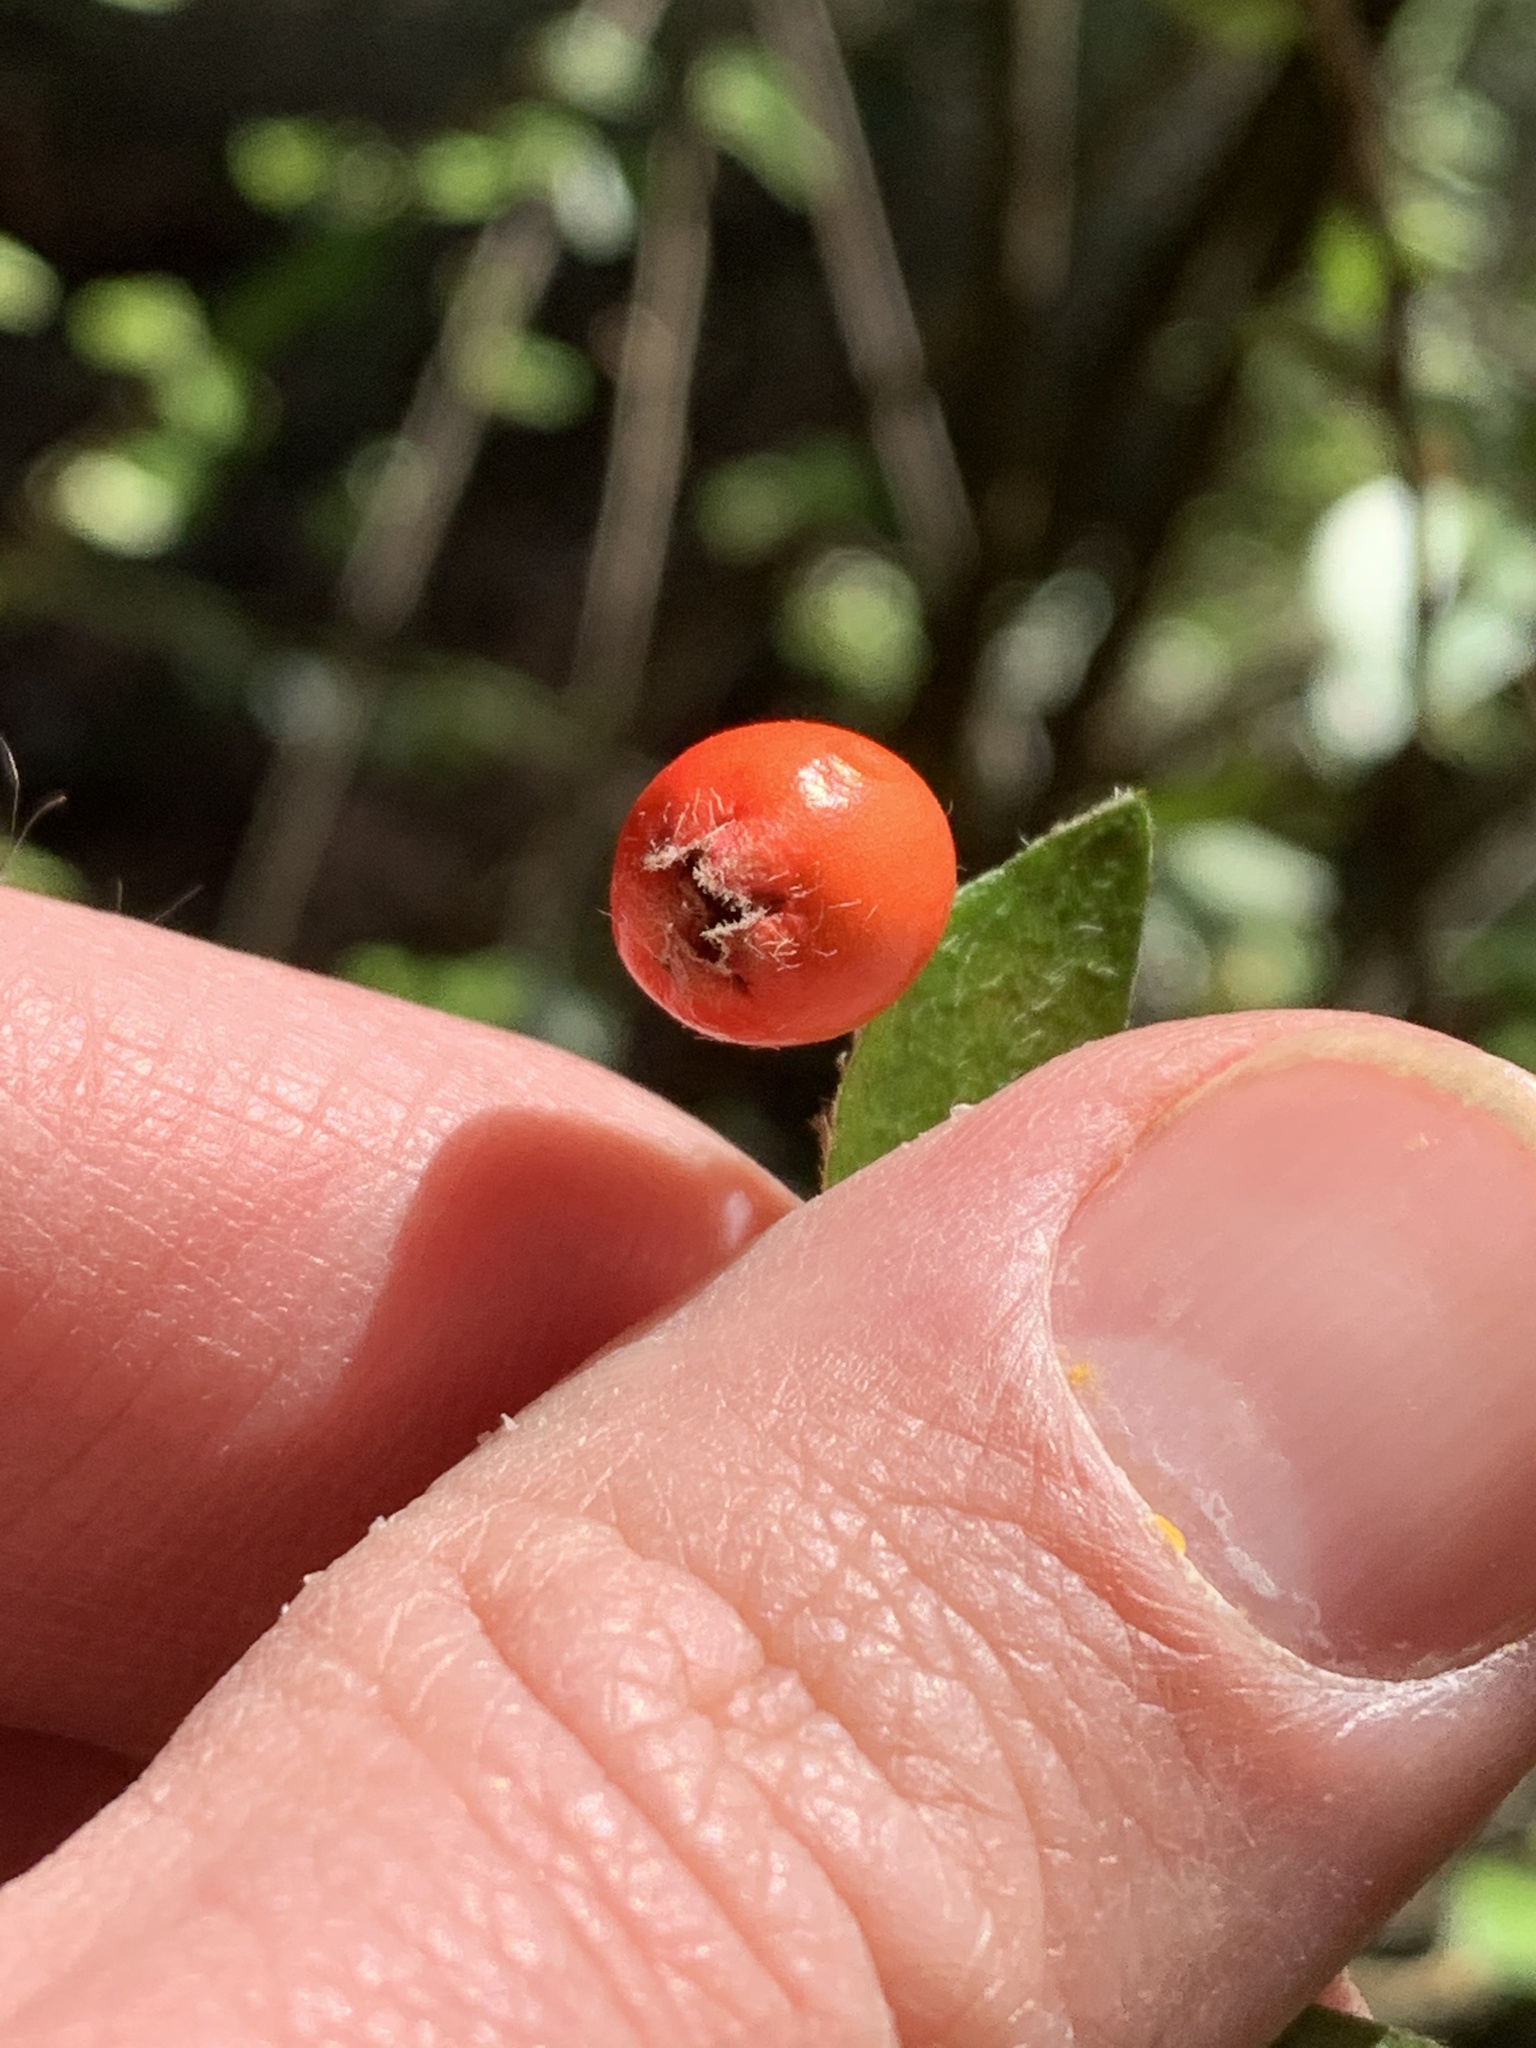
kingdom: Plantae
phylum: Tracheophyta
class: Magnoliopsida
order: Rosales
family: Rosaceae
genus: Cotoneaster
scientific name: Cotoneaster simonsii
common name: Himalayan cotoneaster
